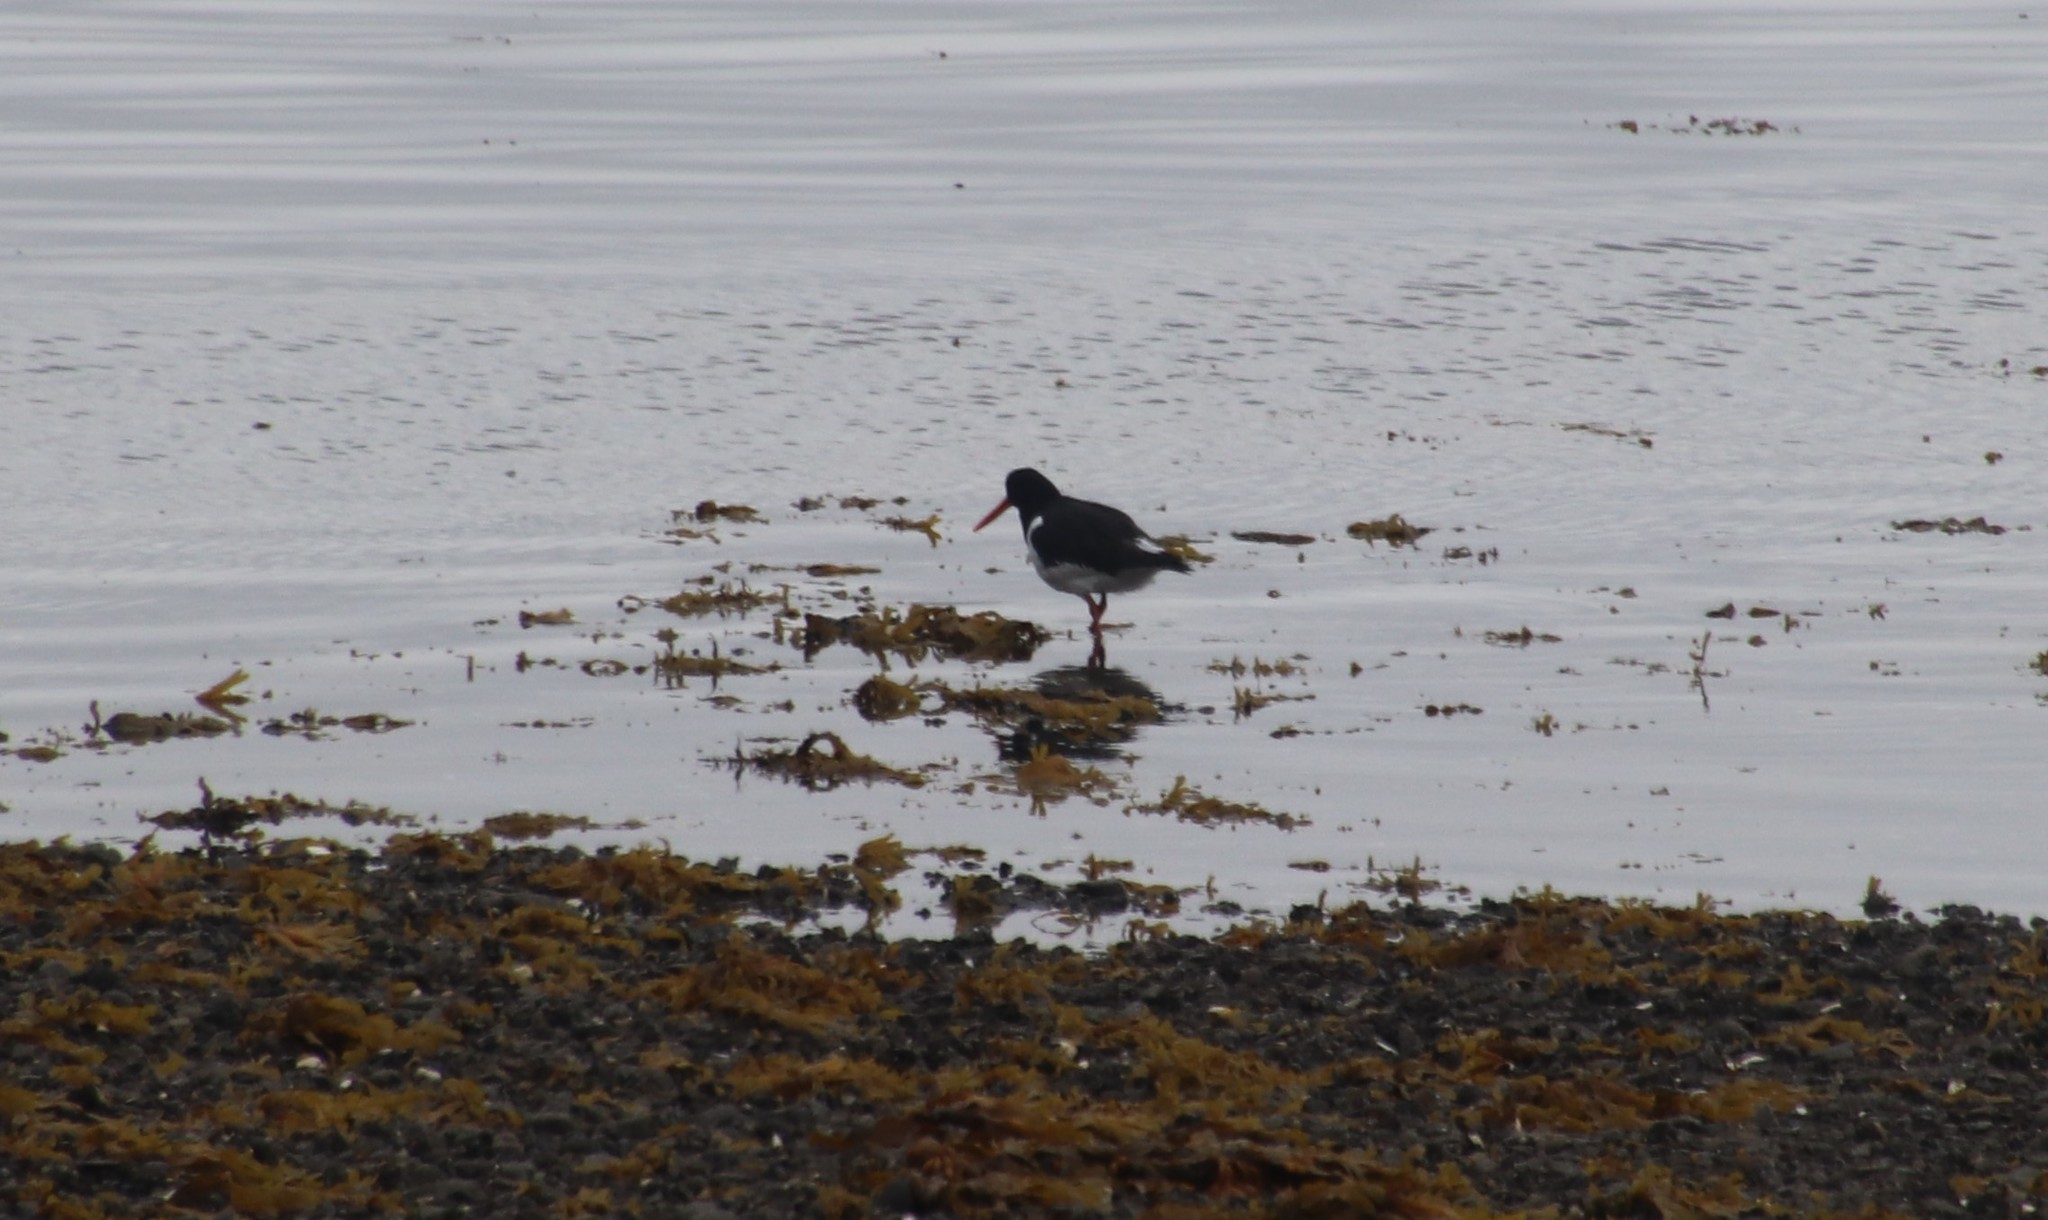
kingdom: Animalia
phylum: Chordata
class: Aves
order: Charadriiformes
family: Haematopodidae
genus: Haematopus
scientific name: Haematopus ostralegus
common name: Eurasian oystercatcher
